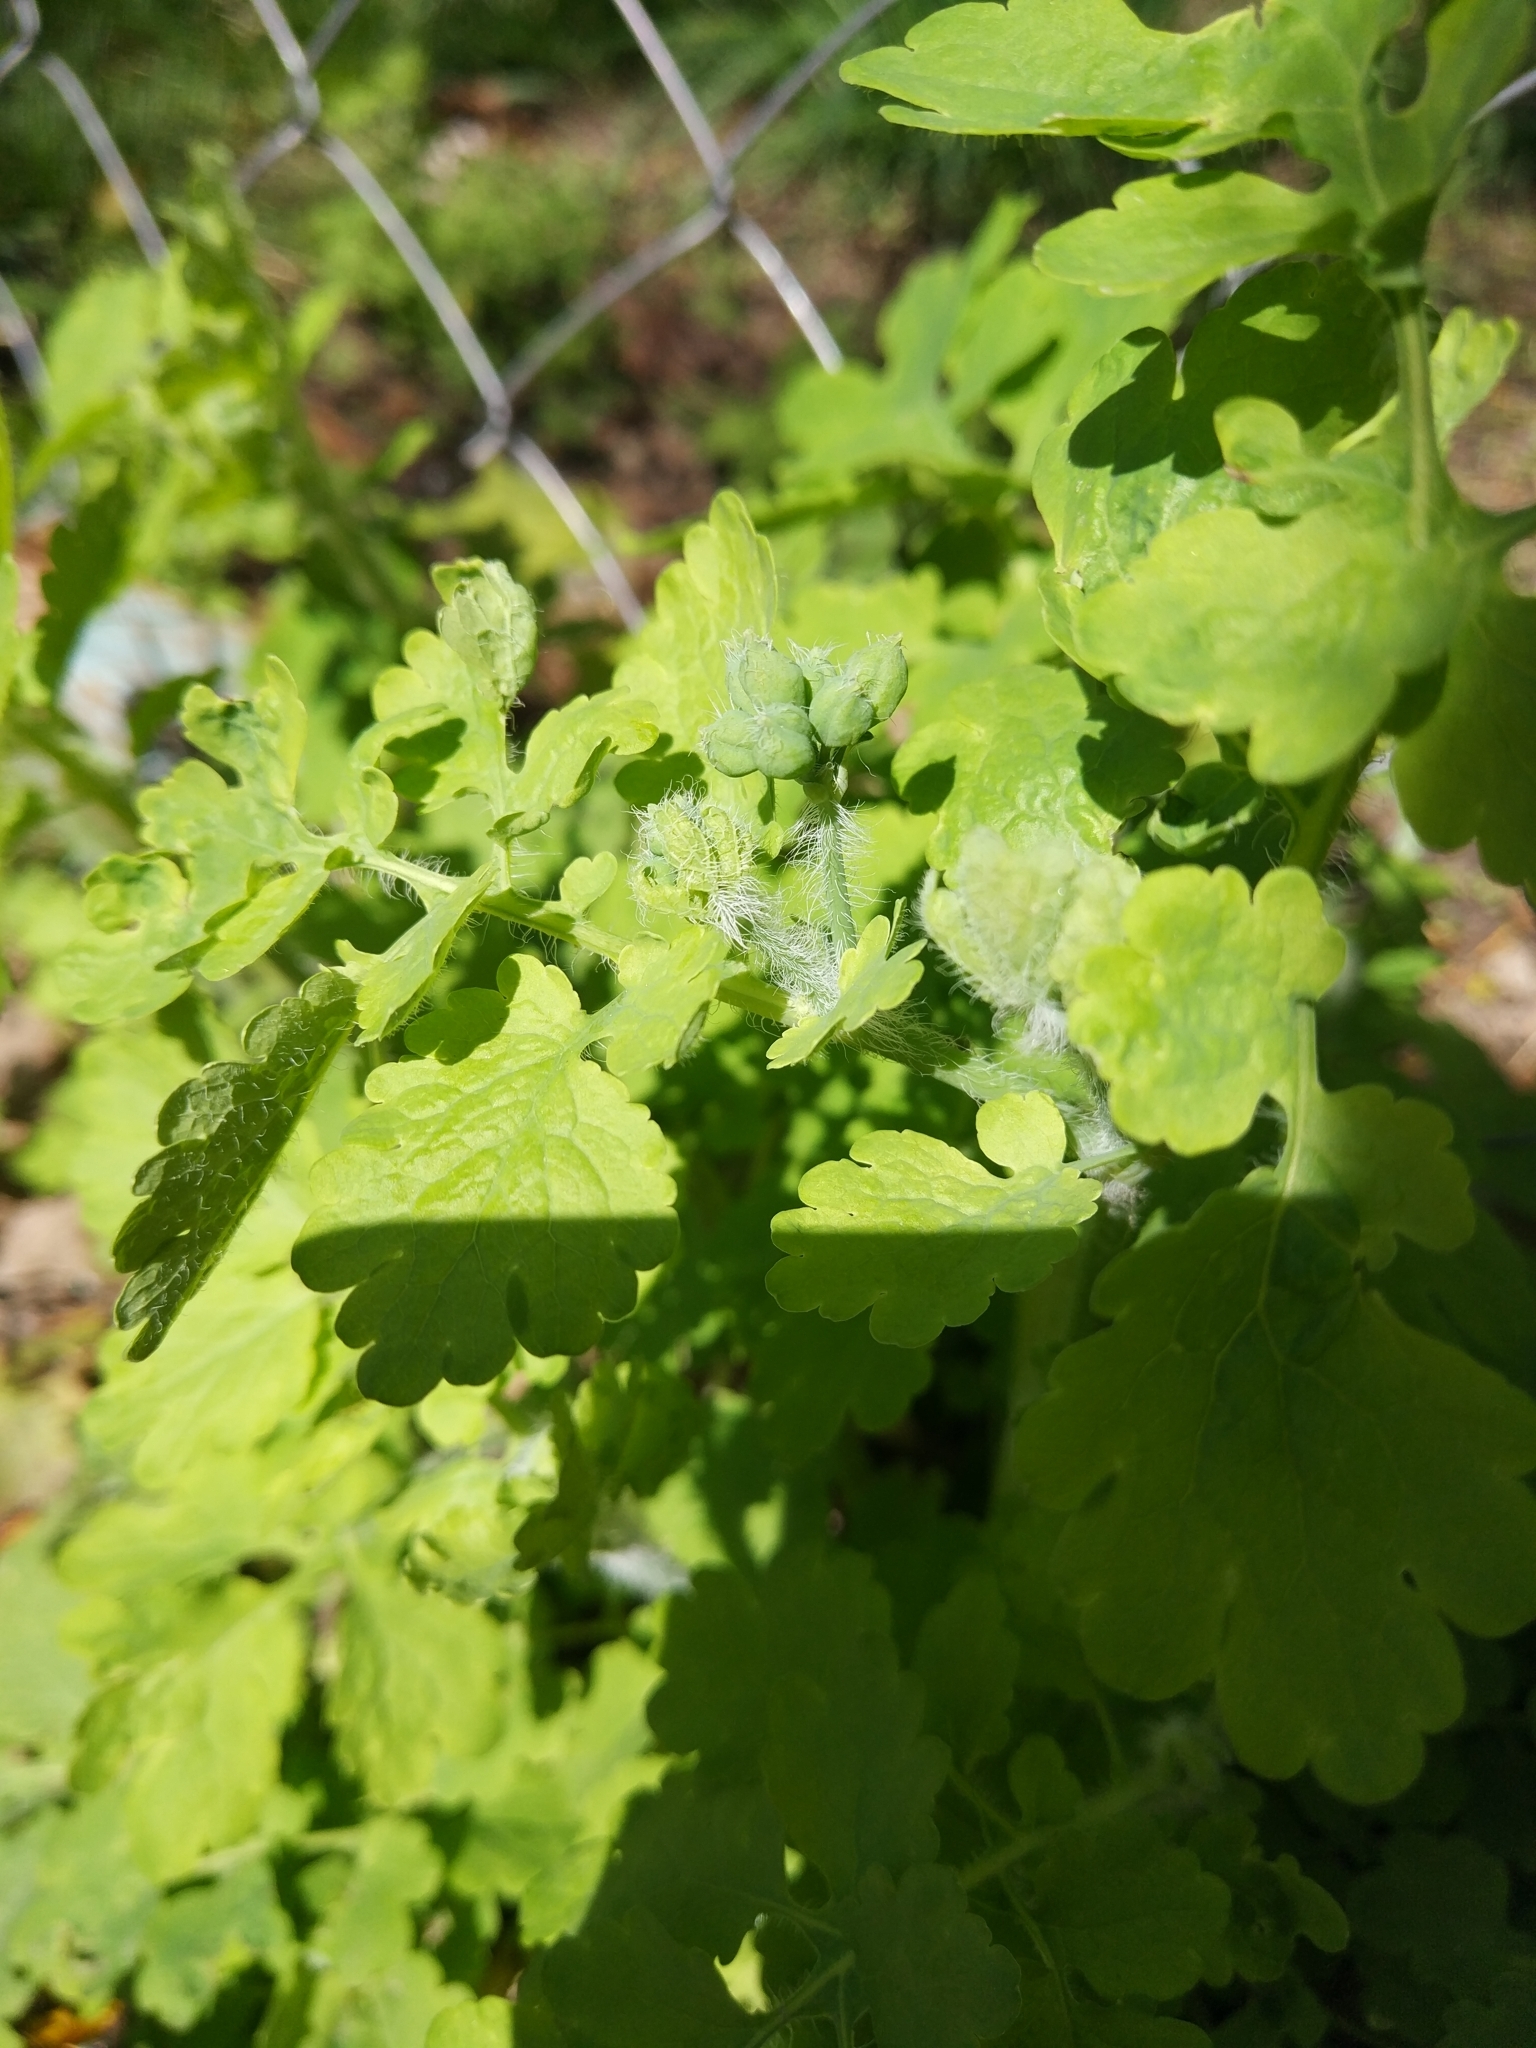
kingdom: Plantae
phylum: Tracheophyta
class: Magnoliopsida
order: Ranunculales
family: Papaveraceae
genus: Chelidonium
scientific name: Chelidonium majus
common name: Greater celandine
